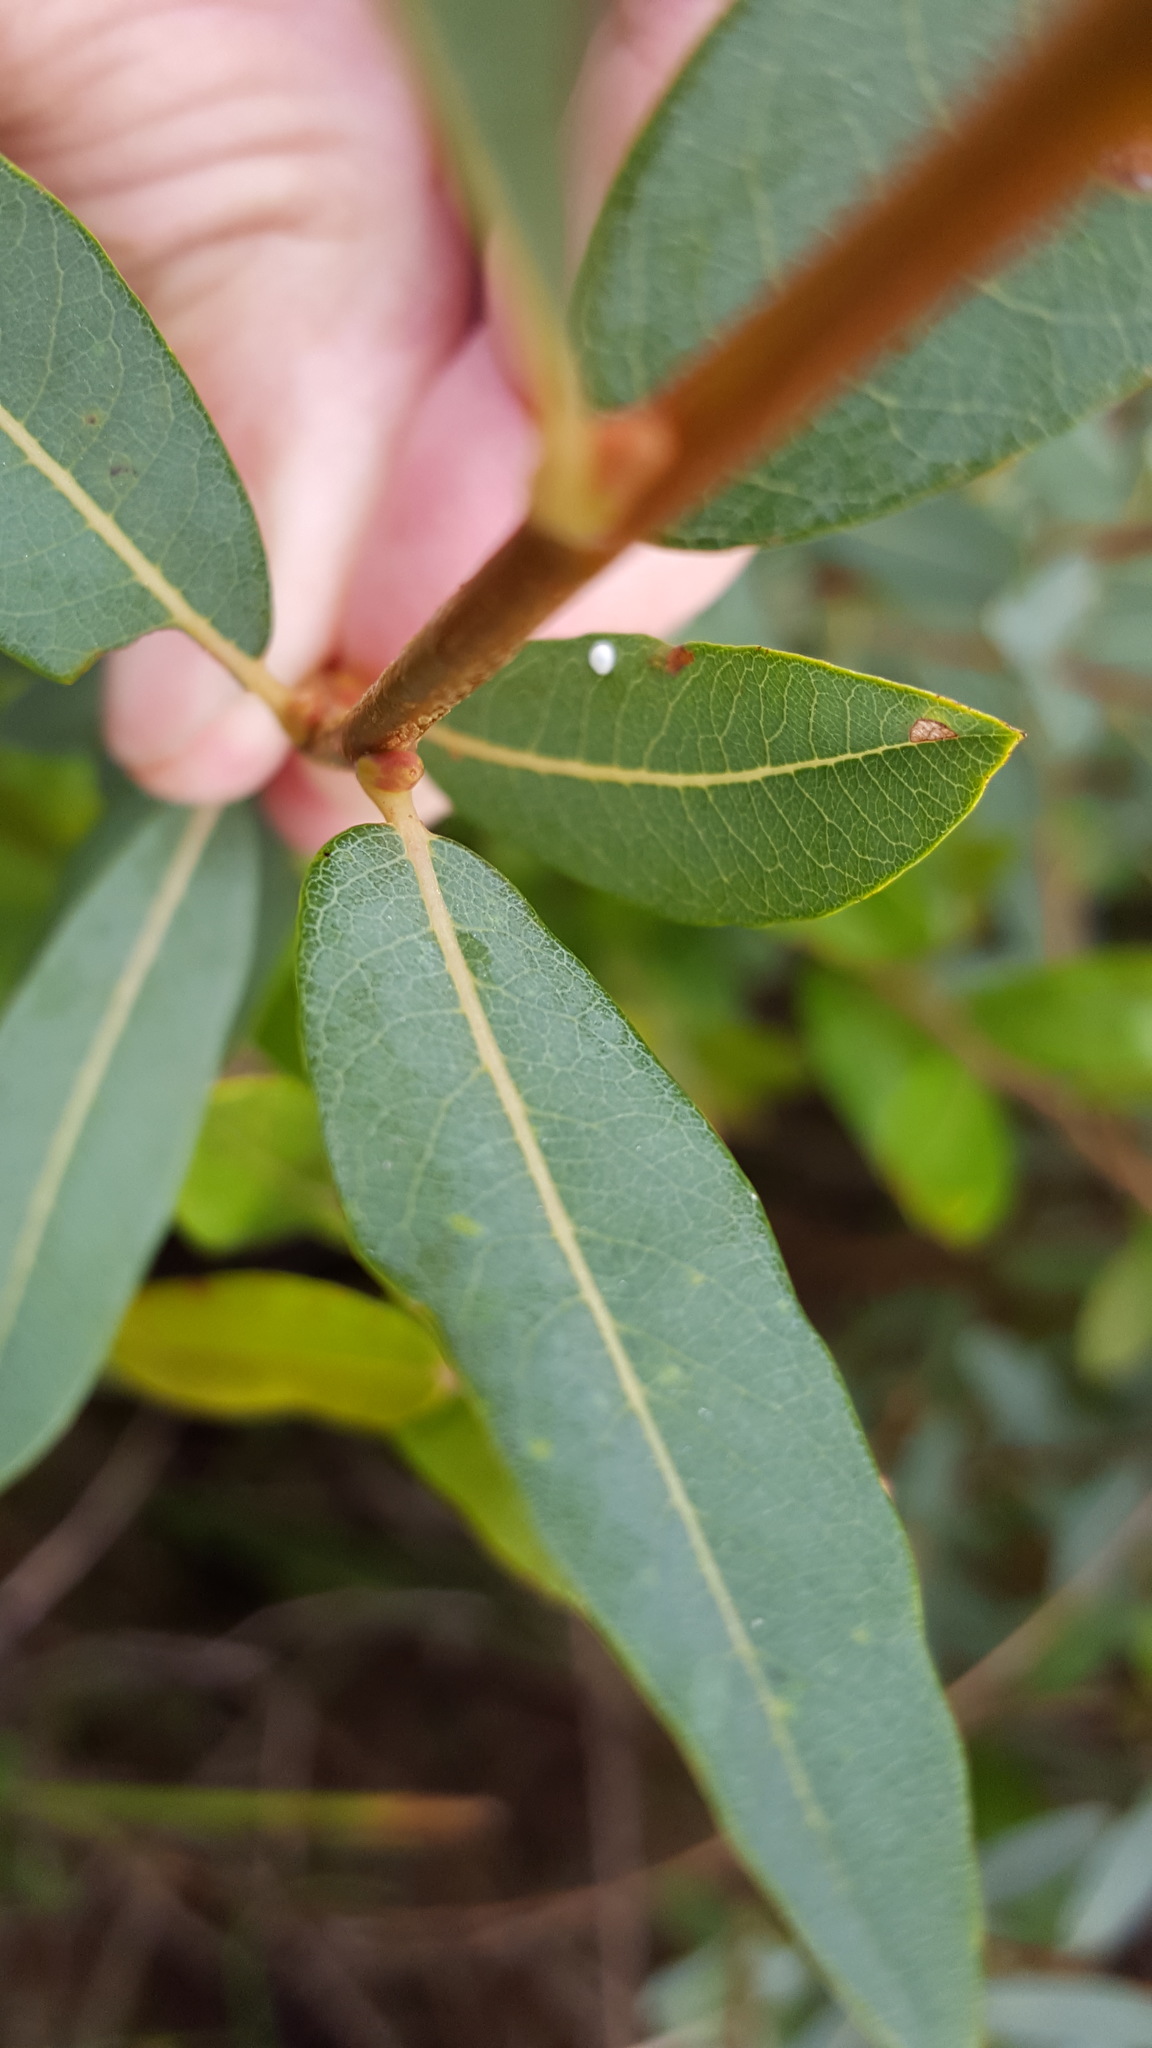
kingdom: Plantae
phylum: Tracheophyta
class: Magnoliopsida
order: Malpighiales
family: Salicaceae
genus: Salix
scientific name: Salix pedicellaris
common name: Bog willow
